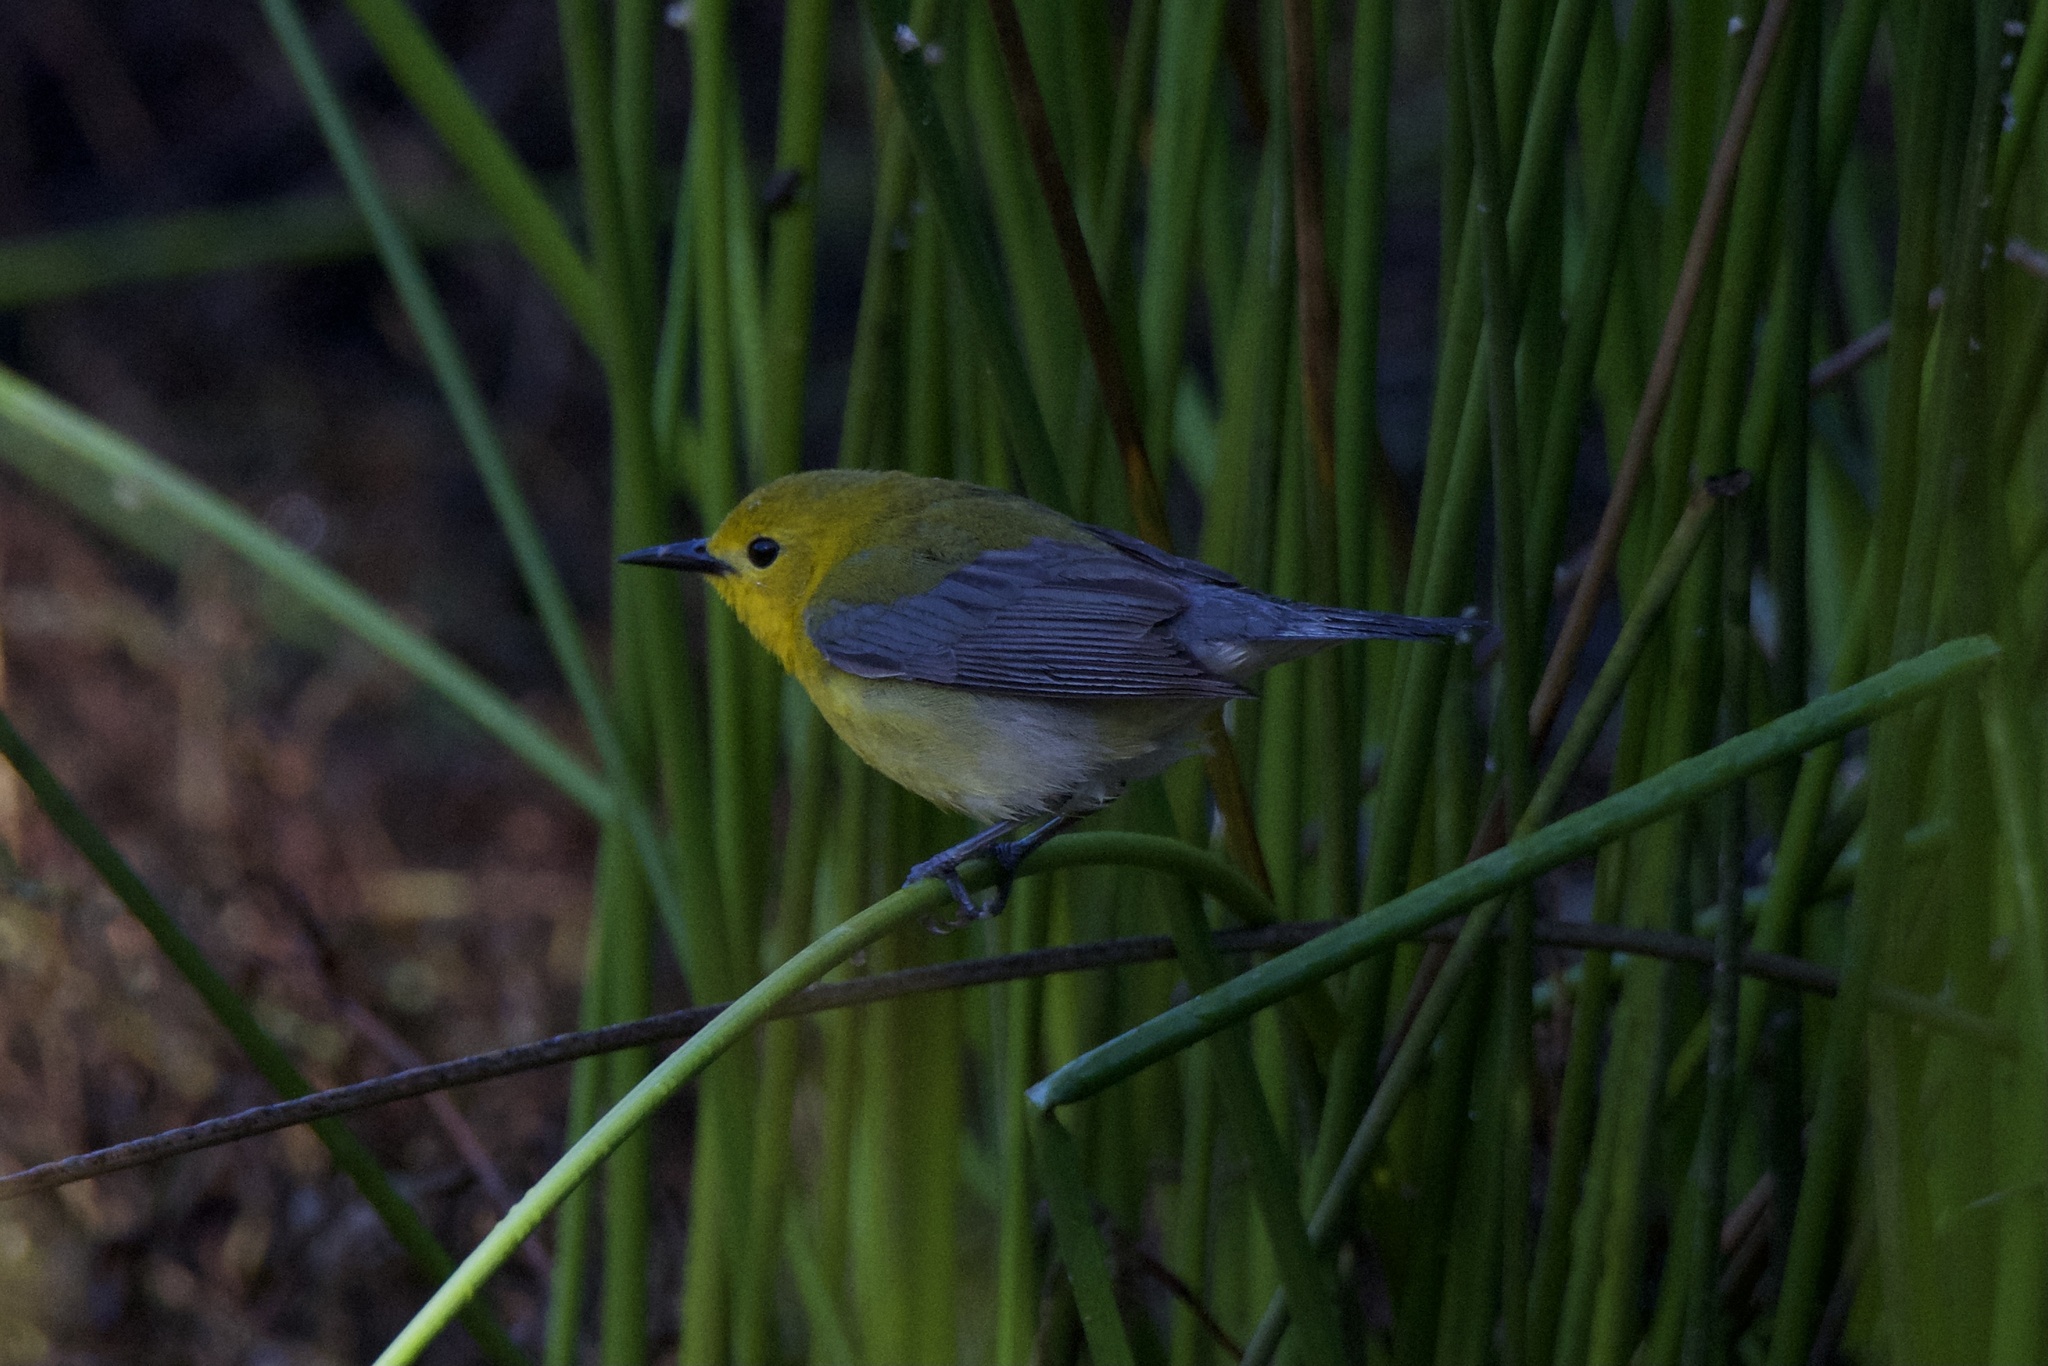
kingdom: Animalia
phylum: Chordata
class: Aves
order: Passeriformes
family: Parulidae
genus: Protonotaria
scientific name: Protonotaria citrea
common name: Prothonotary warbler
